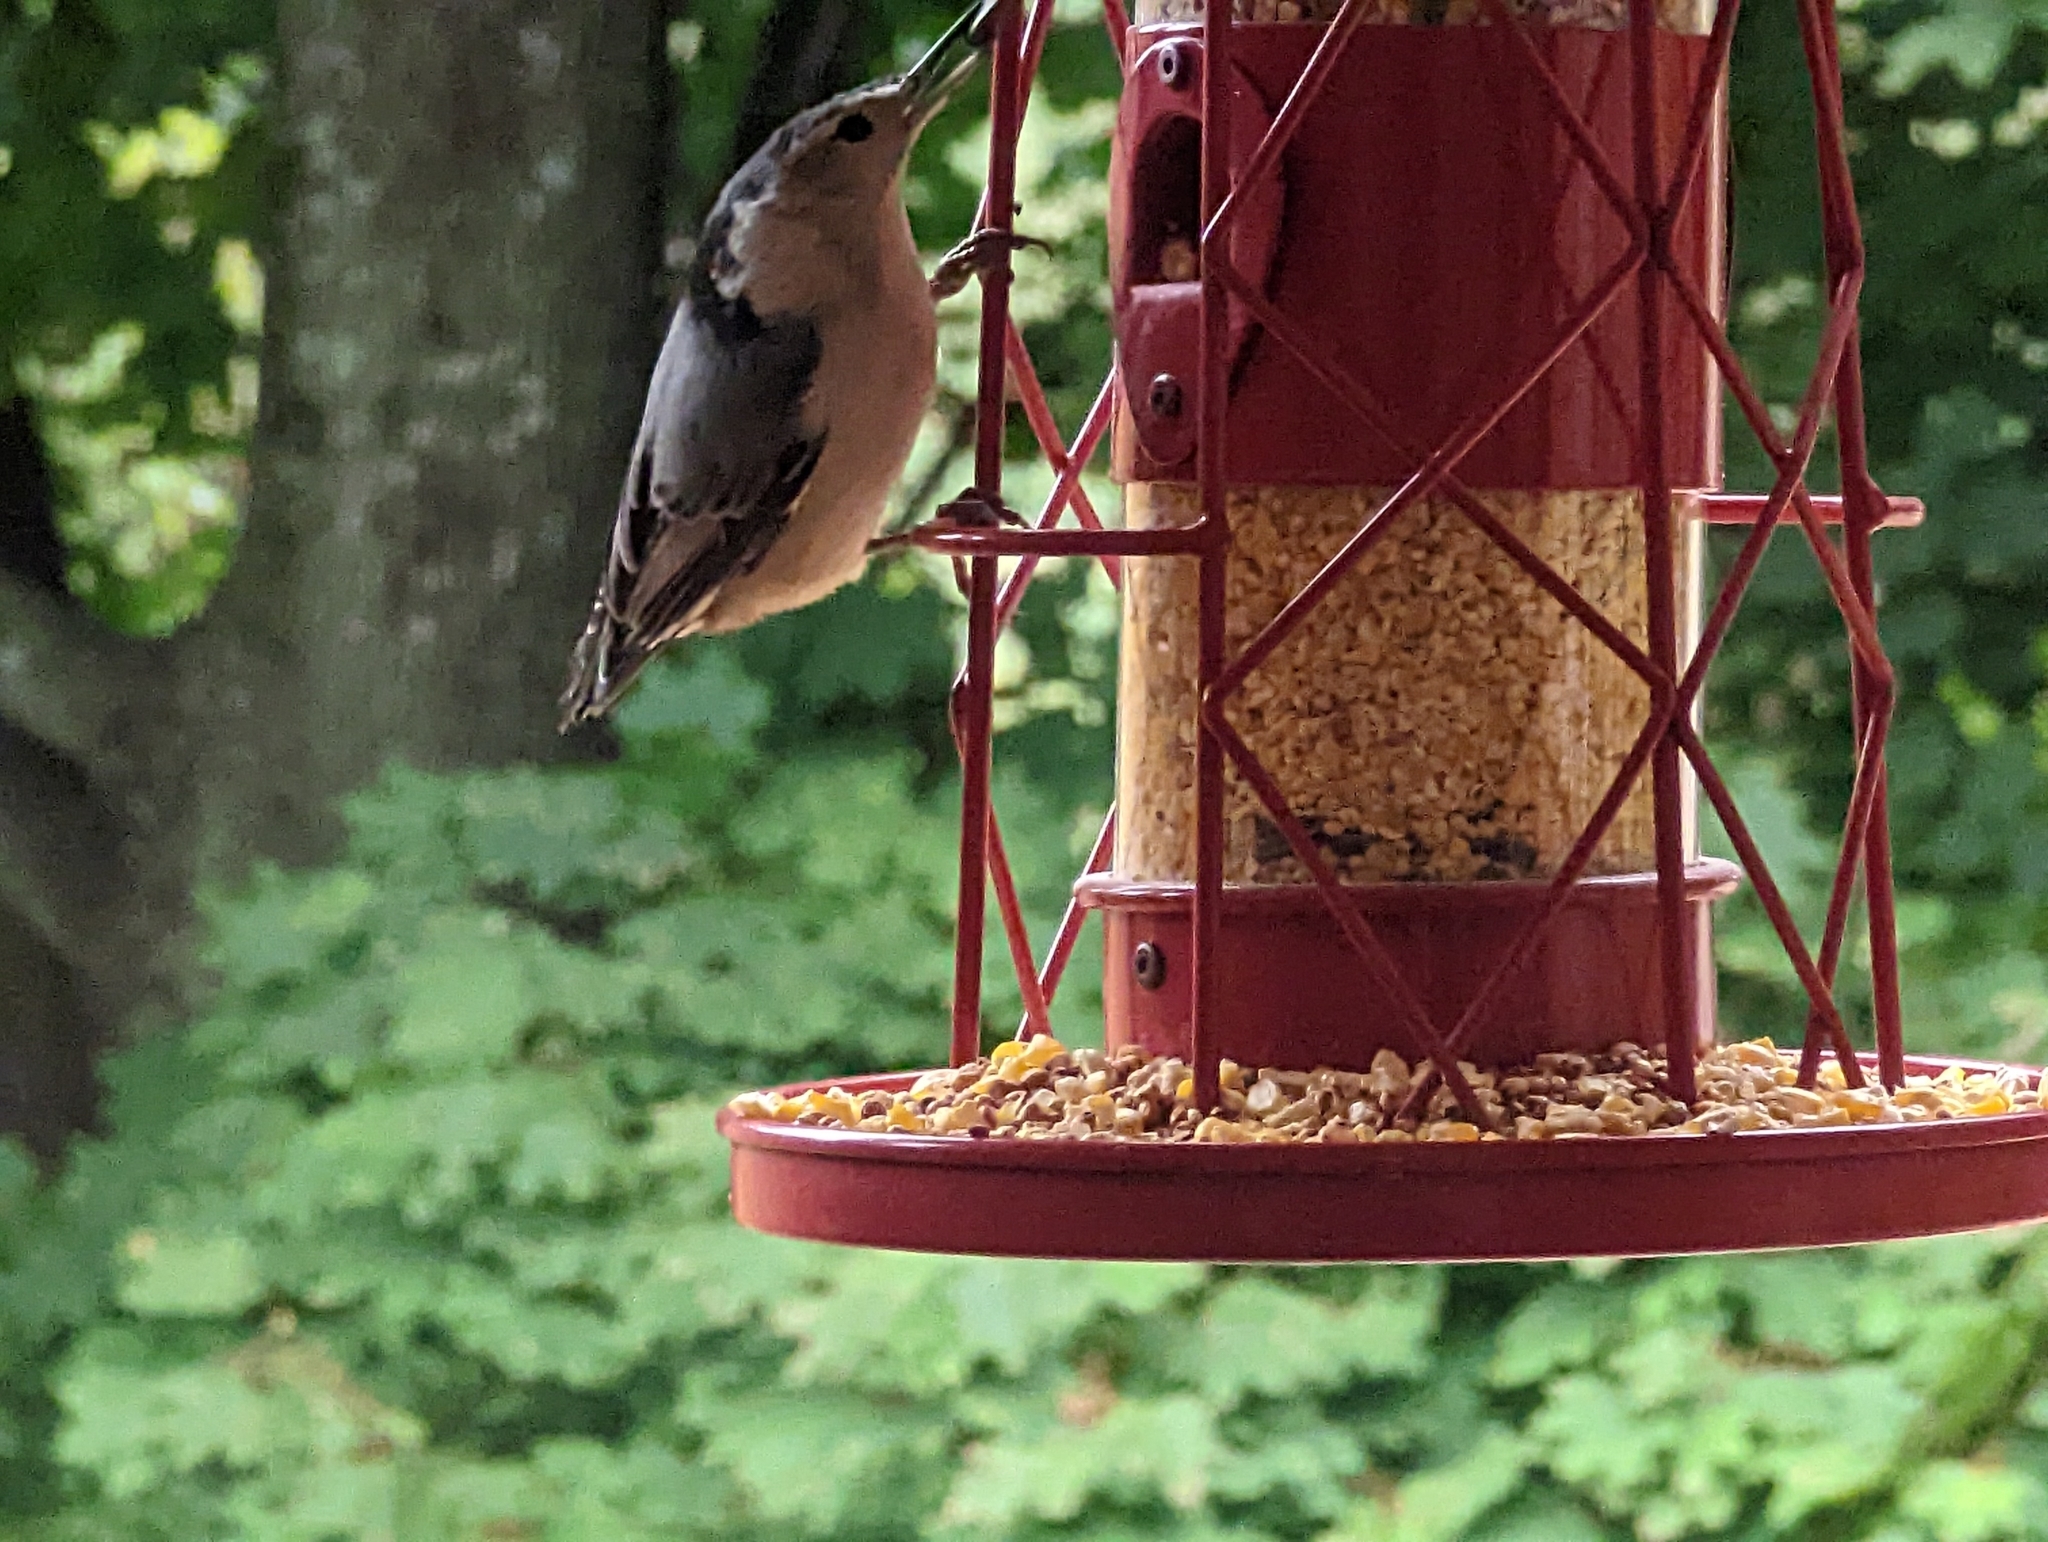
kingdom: Animalia
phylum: Chordata
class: Aves
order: Passeriformes
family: Sittidae
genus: Sitta
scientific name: Sitta carolinensis
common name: White-breasted nuthatch
